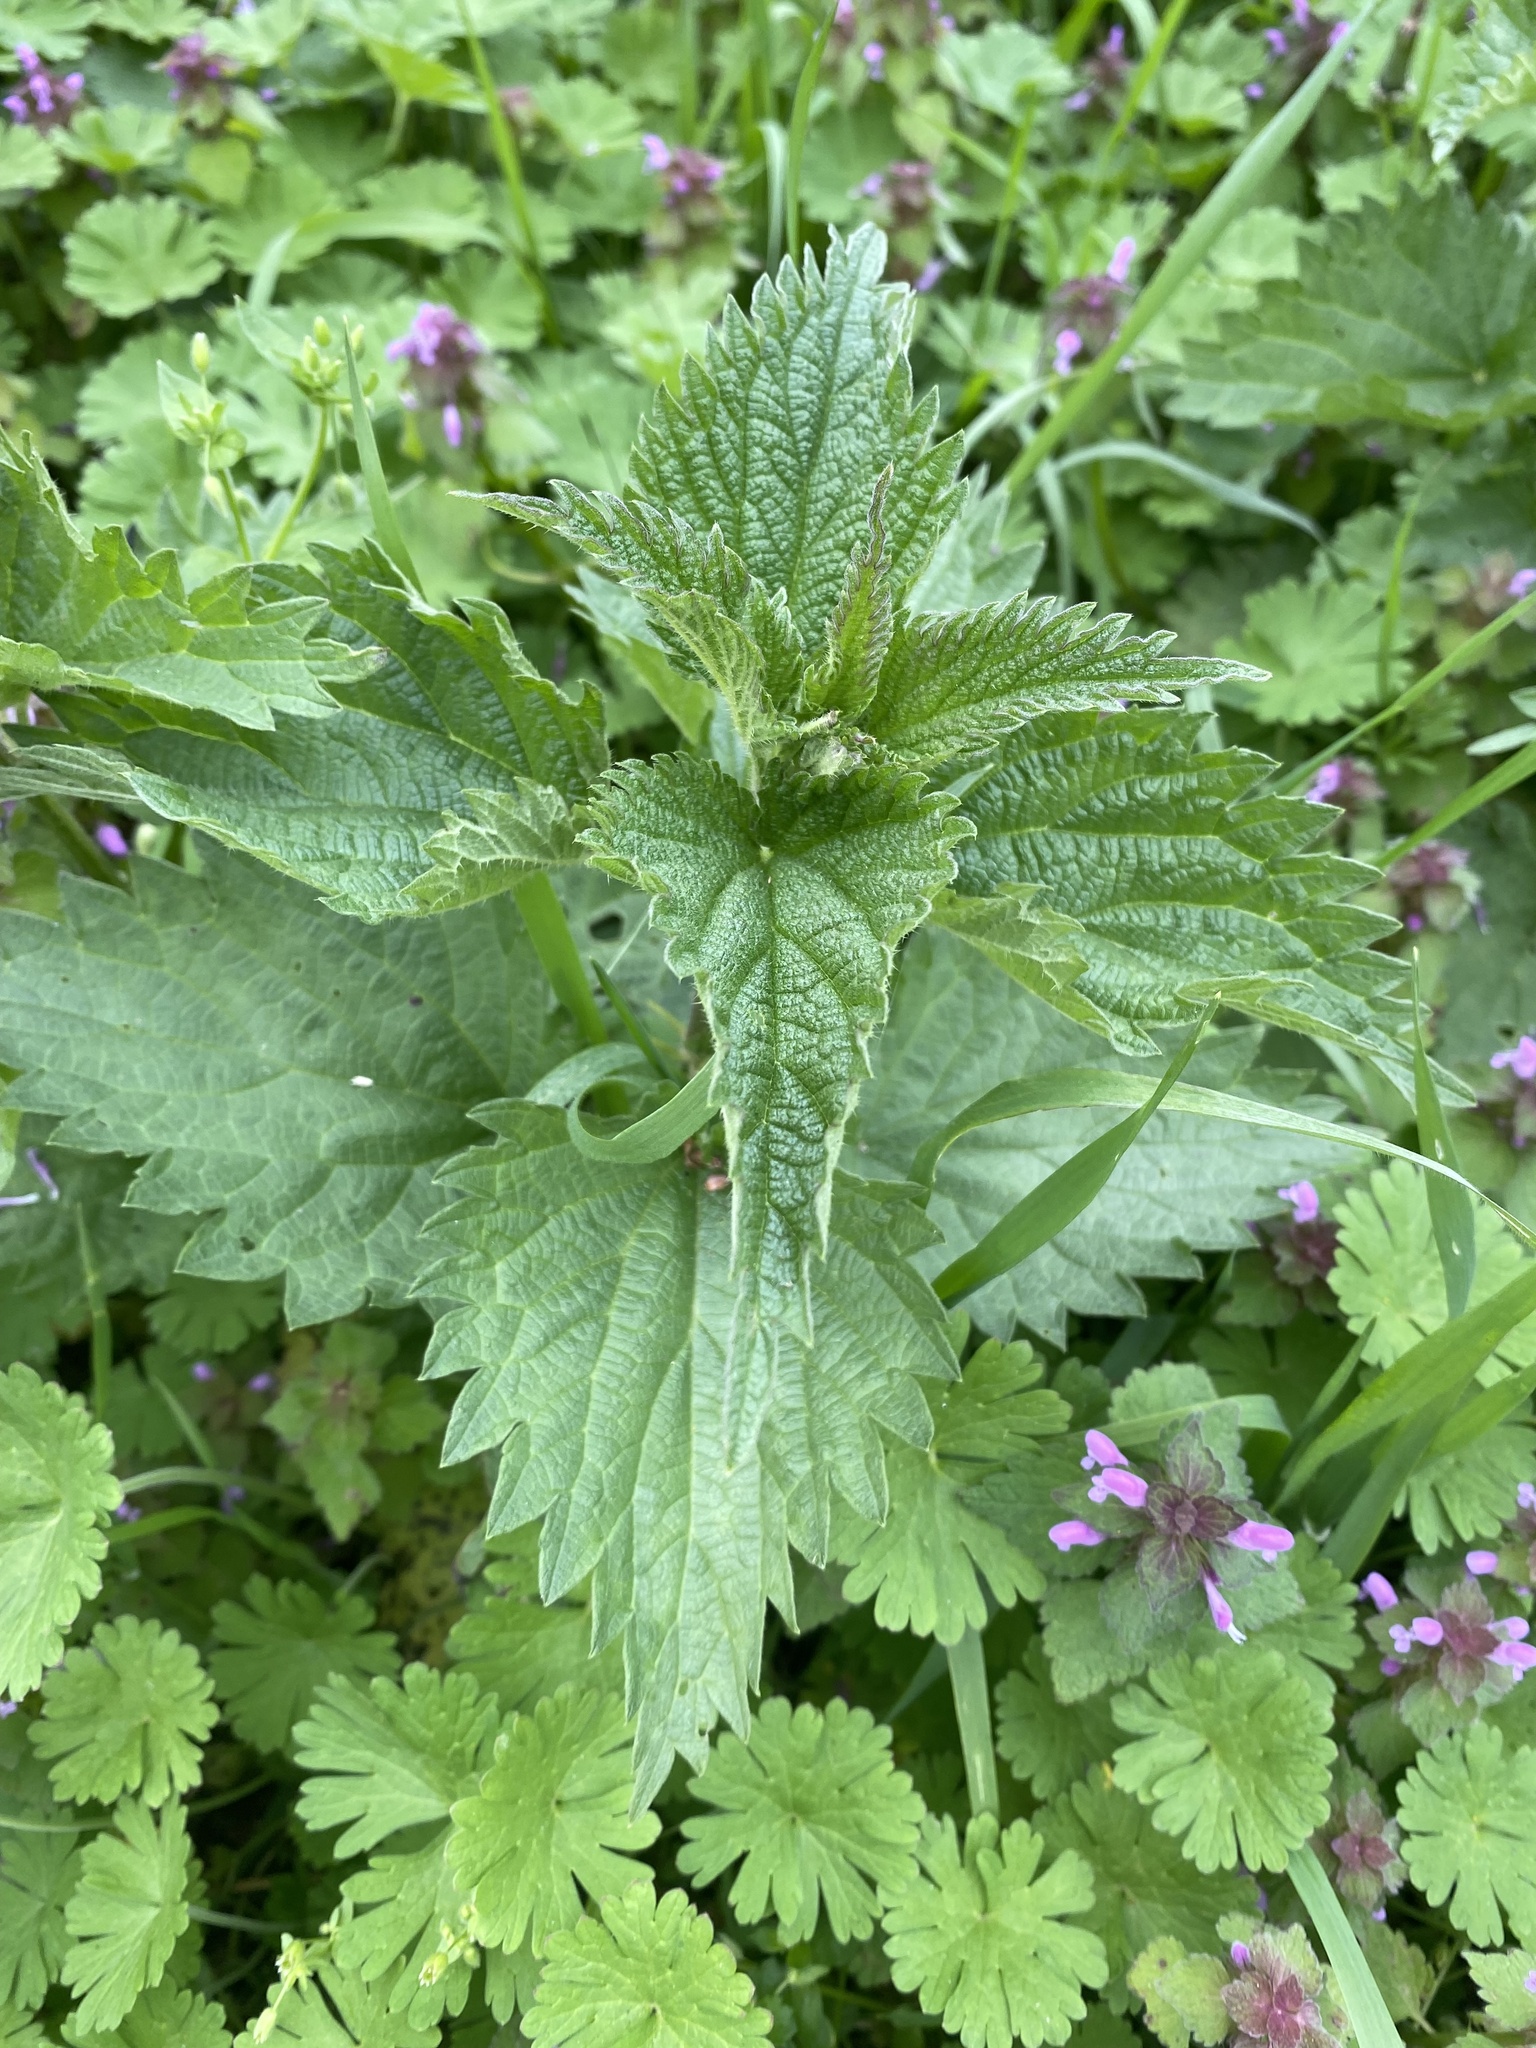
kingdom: Plantae
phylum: Tracheophyta
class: Magnoliopsida
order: Rosales
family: Urticaceae
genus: Urtica
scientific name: Urtica dioica
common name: Common nettle
